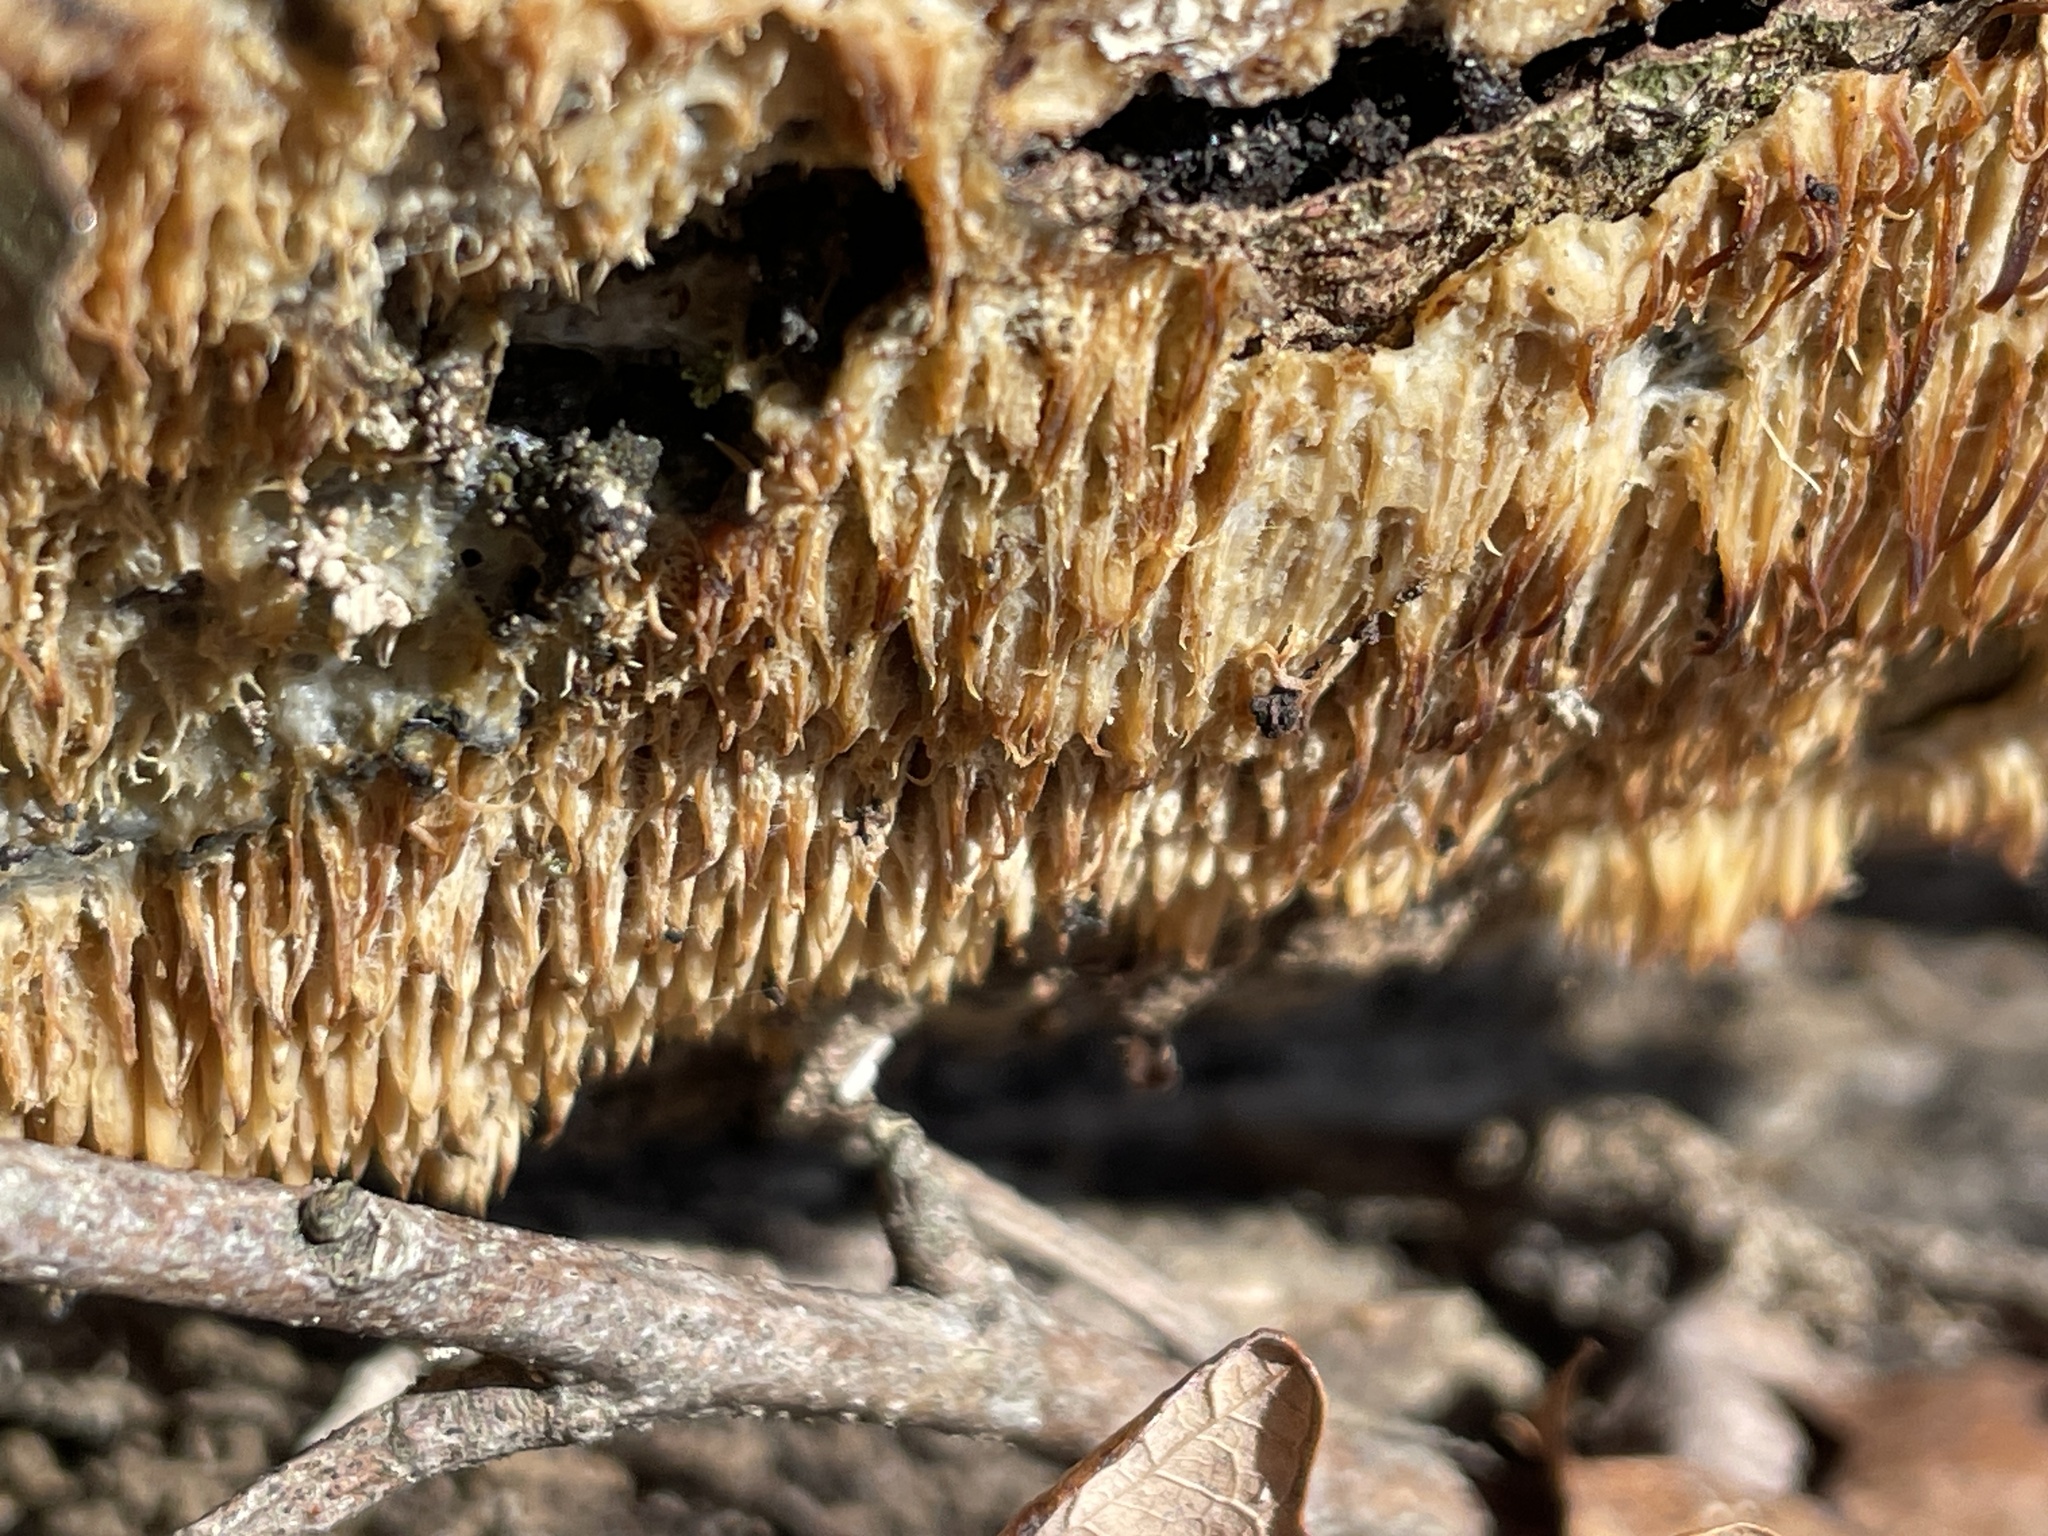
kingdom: Fungi
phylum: Basidiomycota
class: Agaricomycetes
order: Agaricales
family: Radulomycetaceae
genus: Radulomyces
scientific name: Radulomyces copelandii
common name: Asian beauty
